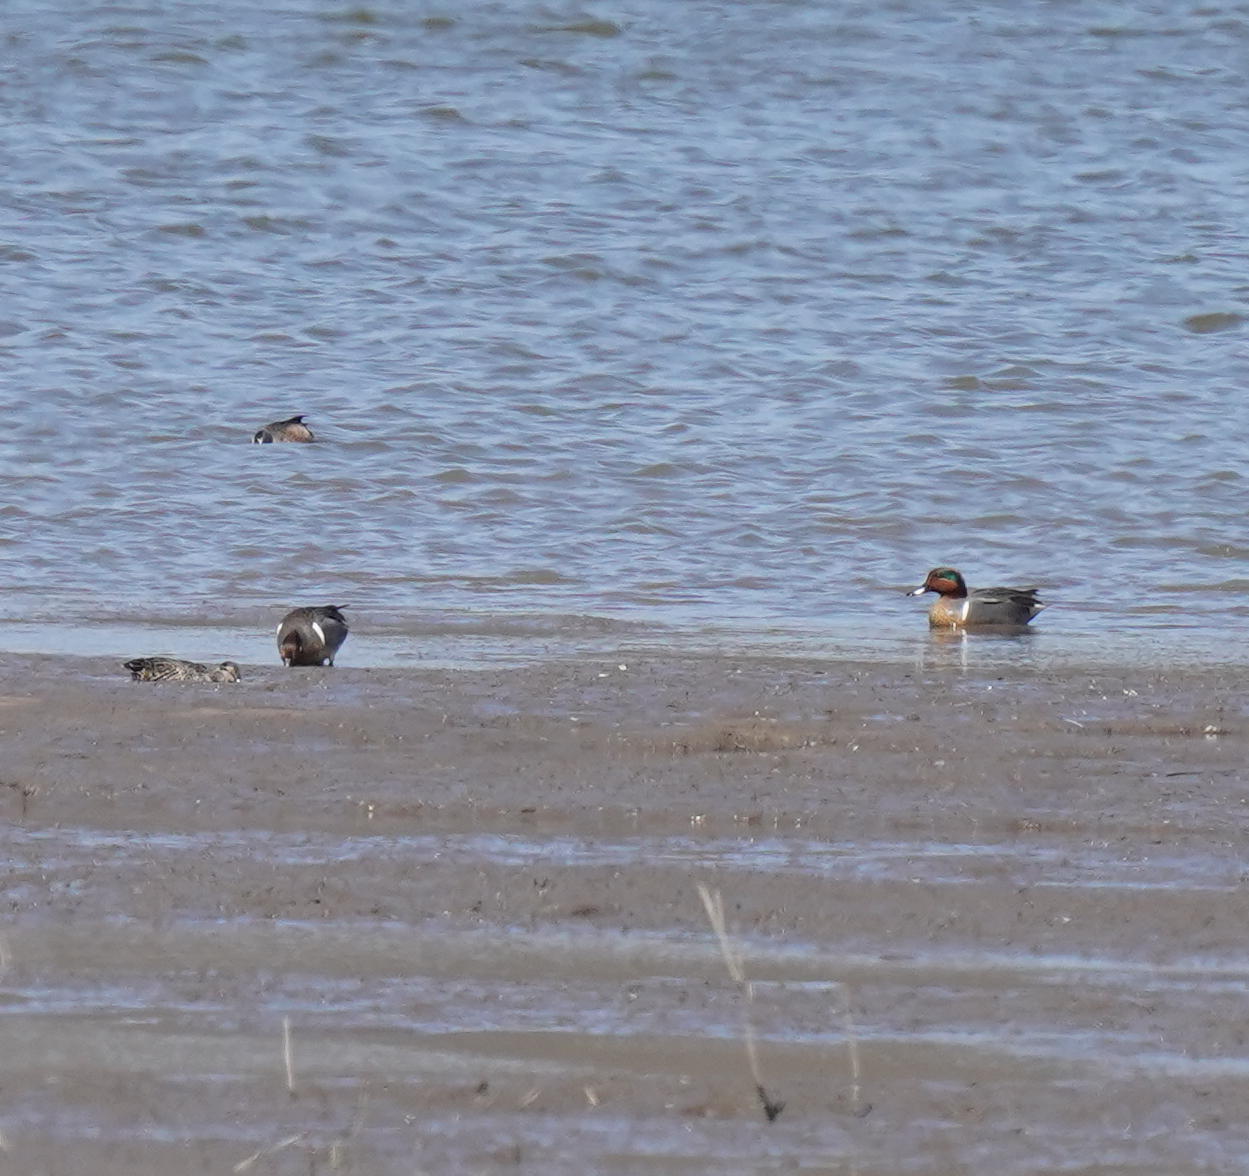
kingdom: Animalia
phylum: Chordata
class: Aves
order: Anseriformes
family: Anatidae
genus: Anas
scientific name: Anas crecca
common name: Eurasian teal
